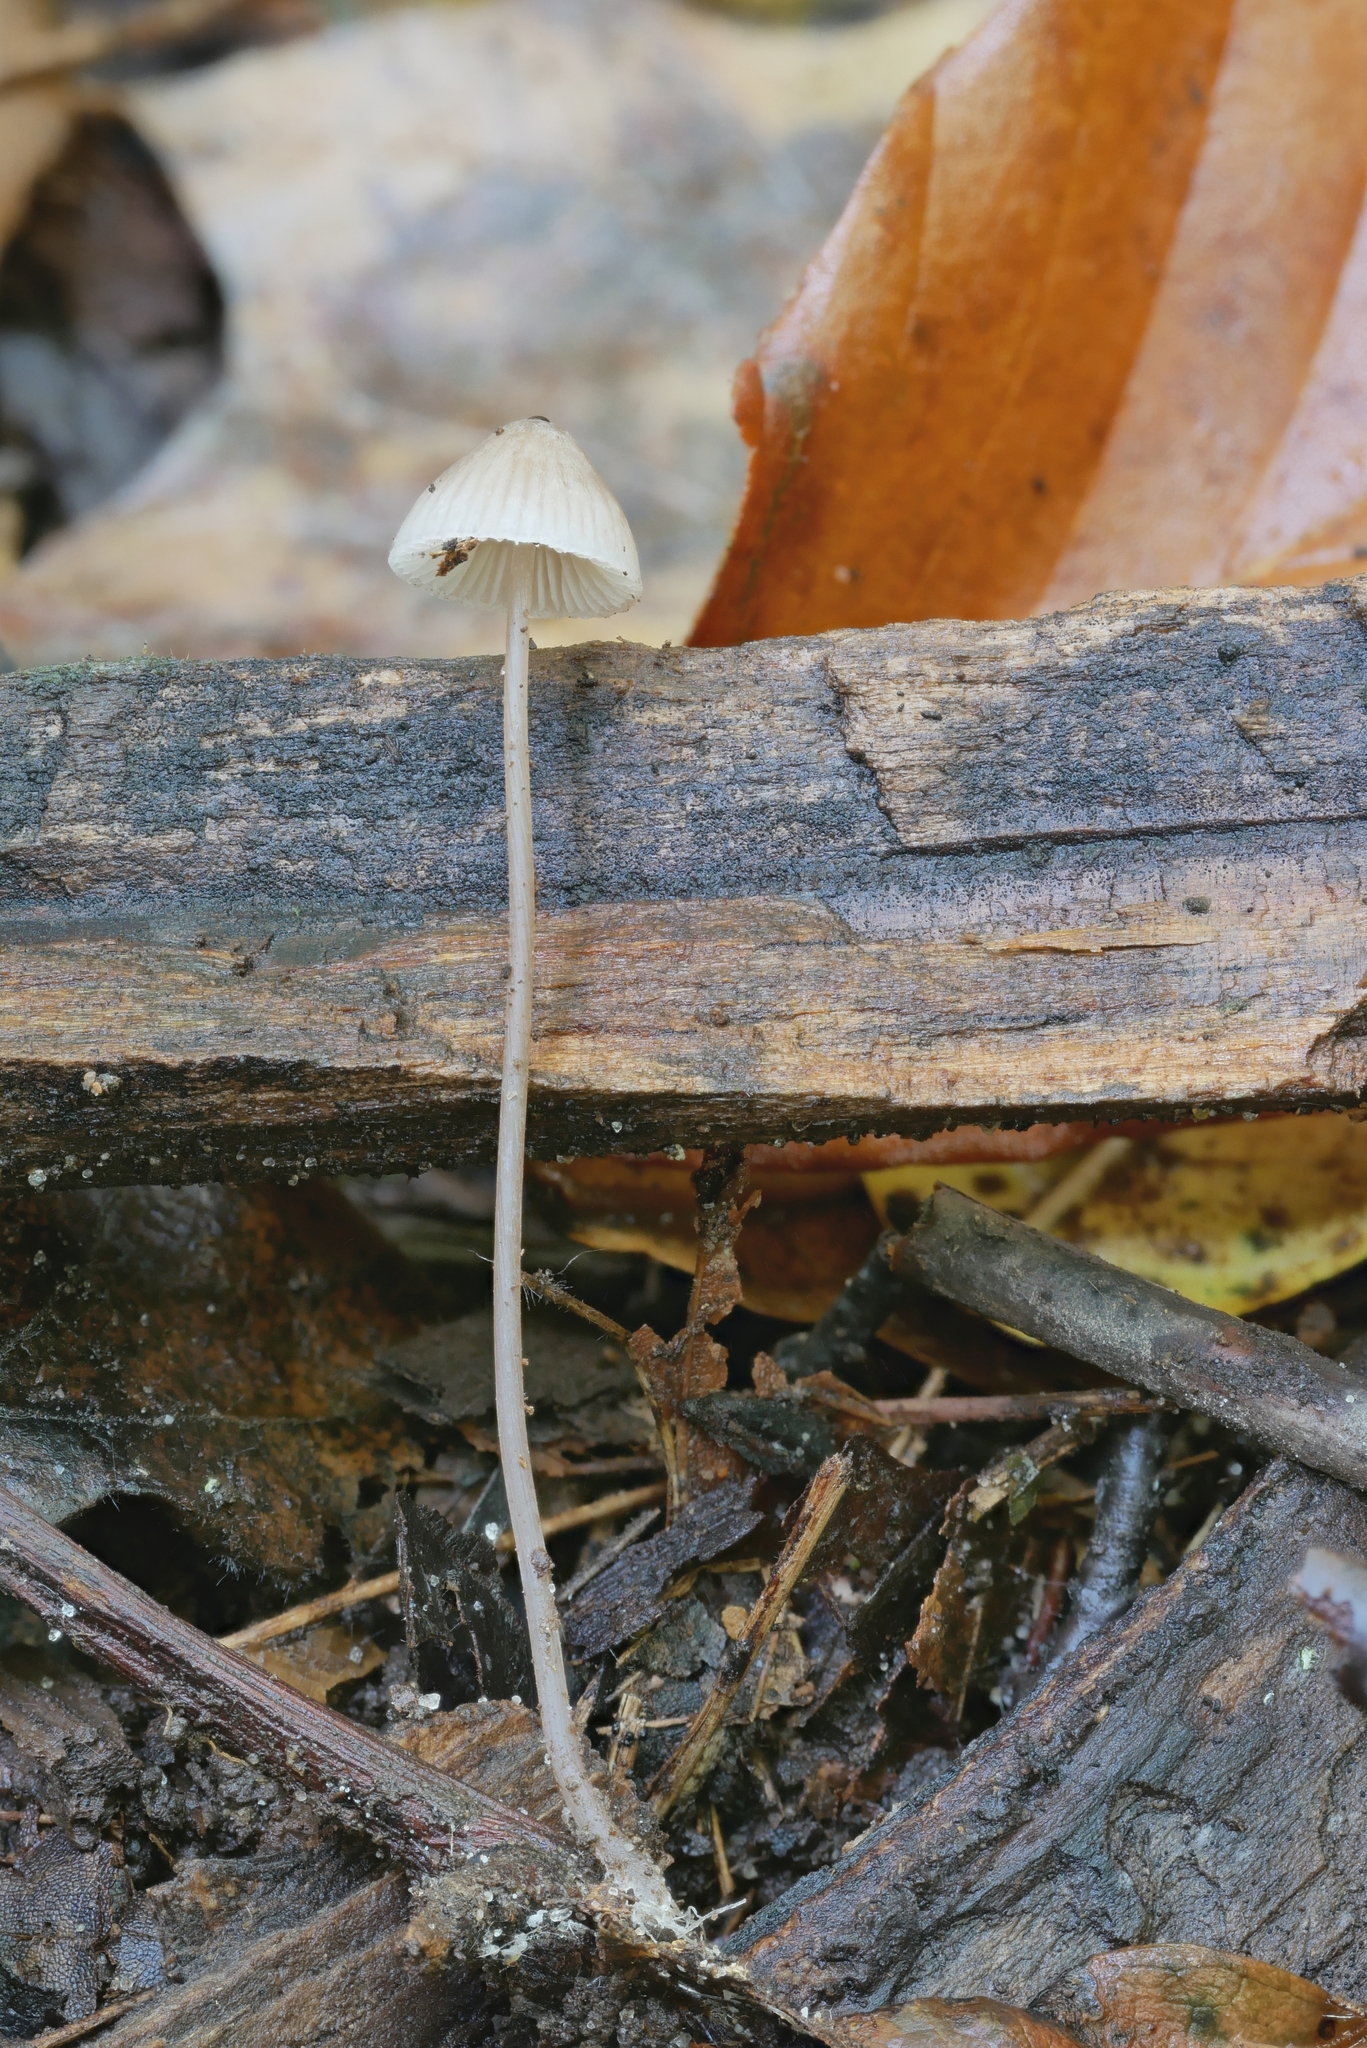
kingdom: Fungi
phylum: Basidiomycota
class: Agaricomycetes
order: Agaricales
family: Mycenaceae
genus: Mycena
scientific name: Mycena filopes
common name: Iodine bonnet
